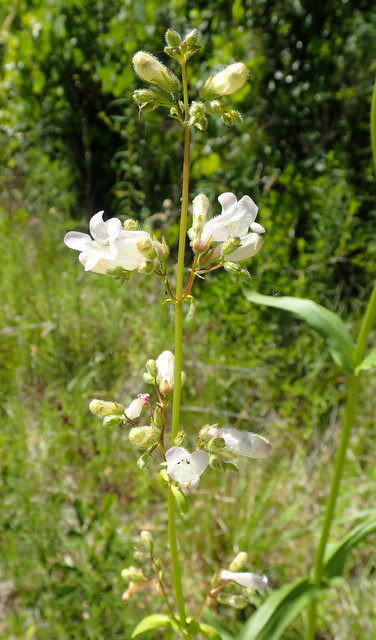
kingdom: Plantae
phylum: Tracheophyta
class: Magnoliopsida
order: Lamiales
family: Plantaginaceae
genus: Penstemon
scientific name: Penstemon multiflorus
